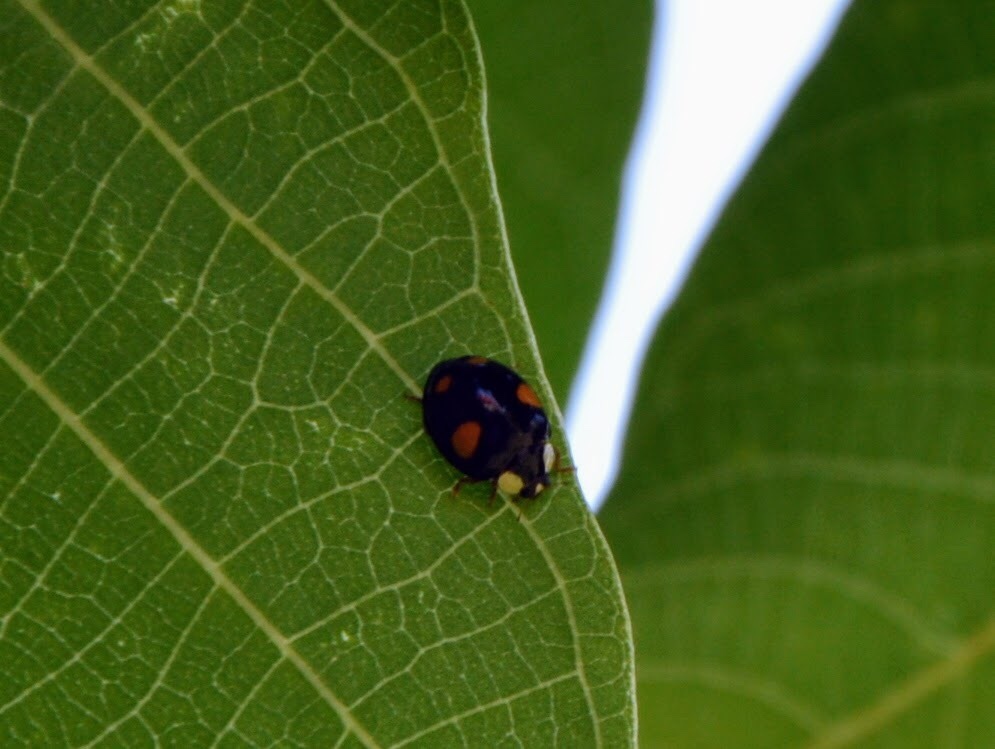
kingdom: Animalia
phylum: Arthropoda
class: Insecta
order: Coleoptera
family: Coccinellidae
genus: Harmonia
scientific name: Harmonia axyridis
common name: Harlequin ladybird
